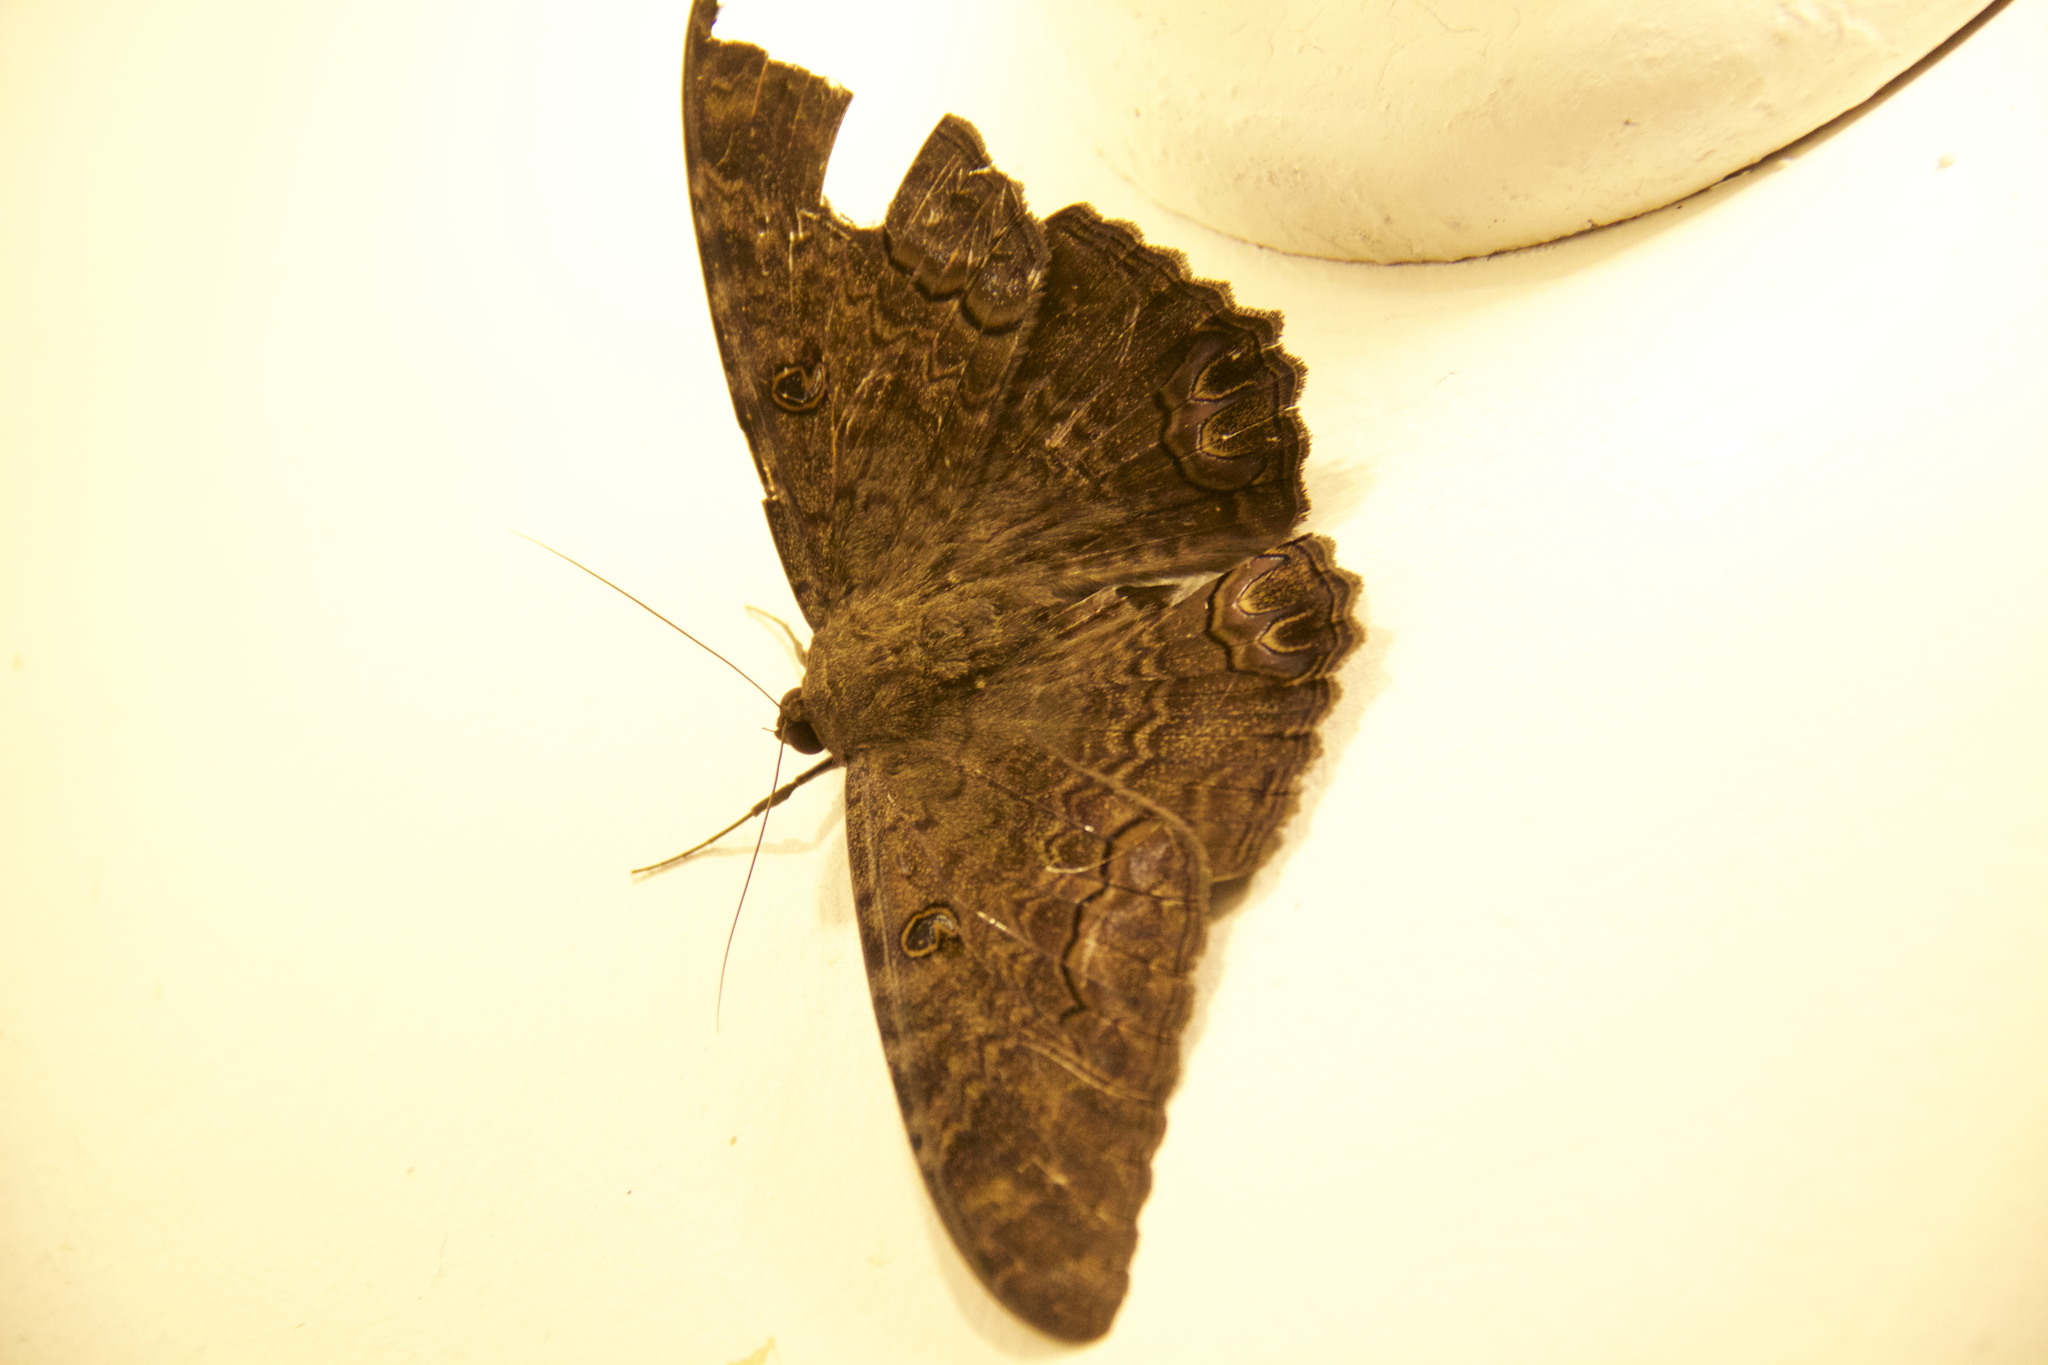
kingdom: Animalia
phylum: Arthropoda
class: Insecta
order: Lepidoptera
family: Erebidae
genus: Ascalapha
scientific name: Ascalapha odorata
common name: Black witch
